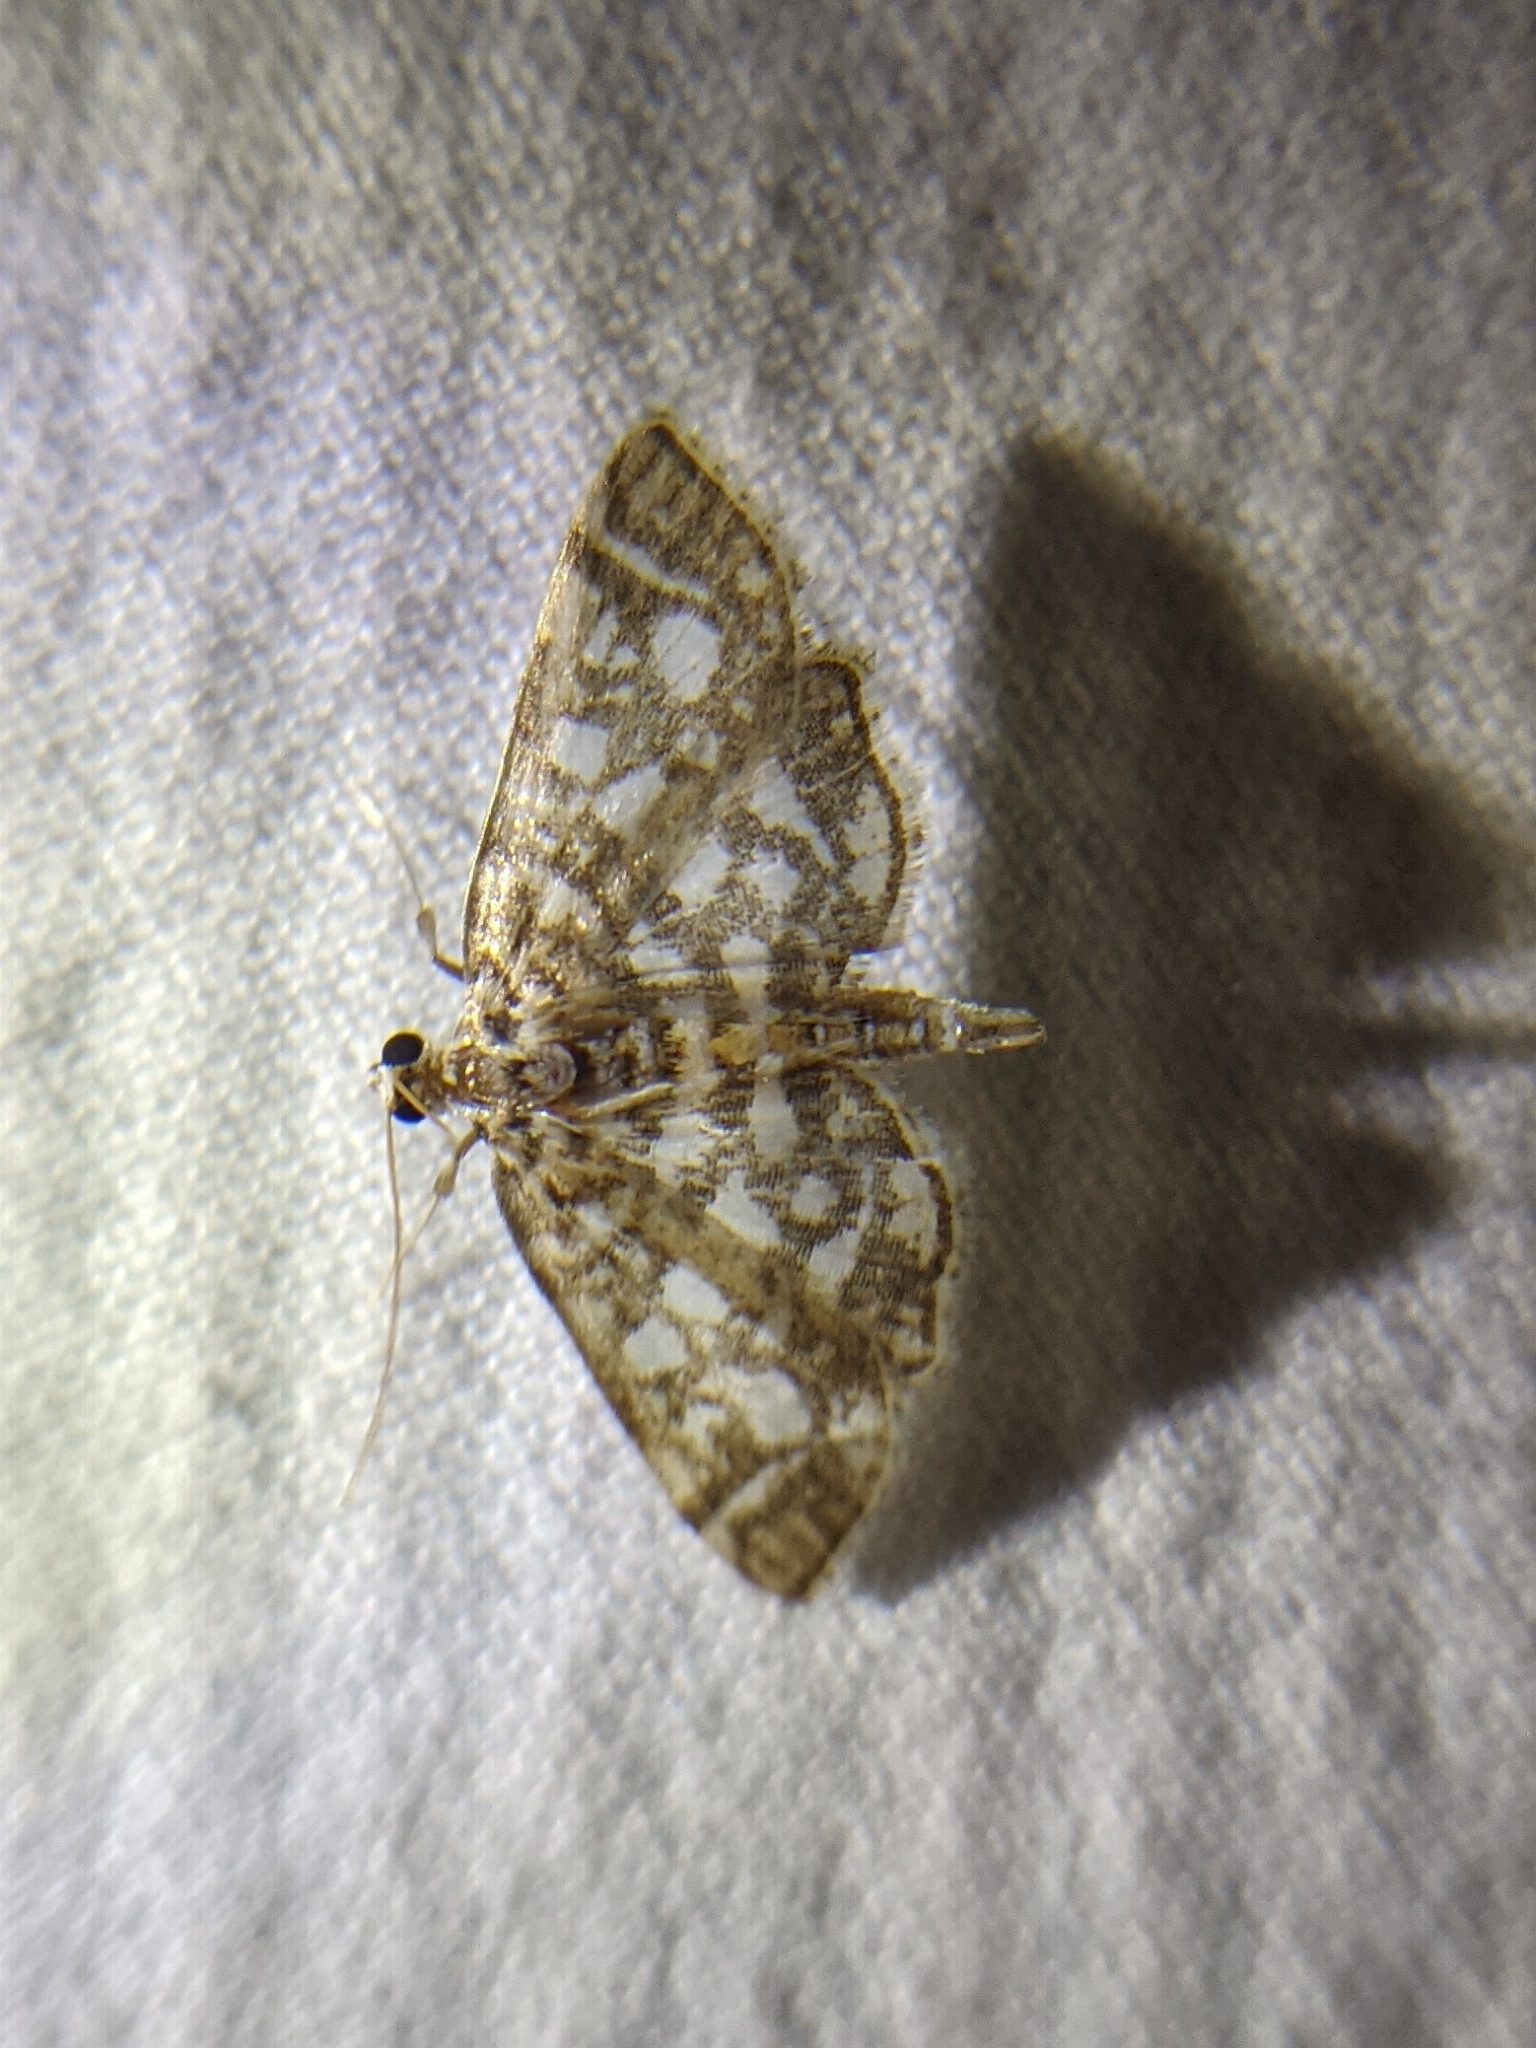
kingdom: Animalia
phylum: Arthropoda
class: Insecta
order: Lepidoptera
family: Crambidae
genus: Lygropia
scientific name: Lygropia rivulalis
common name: Bog lygropia moth
